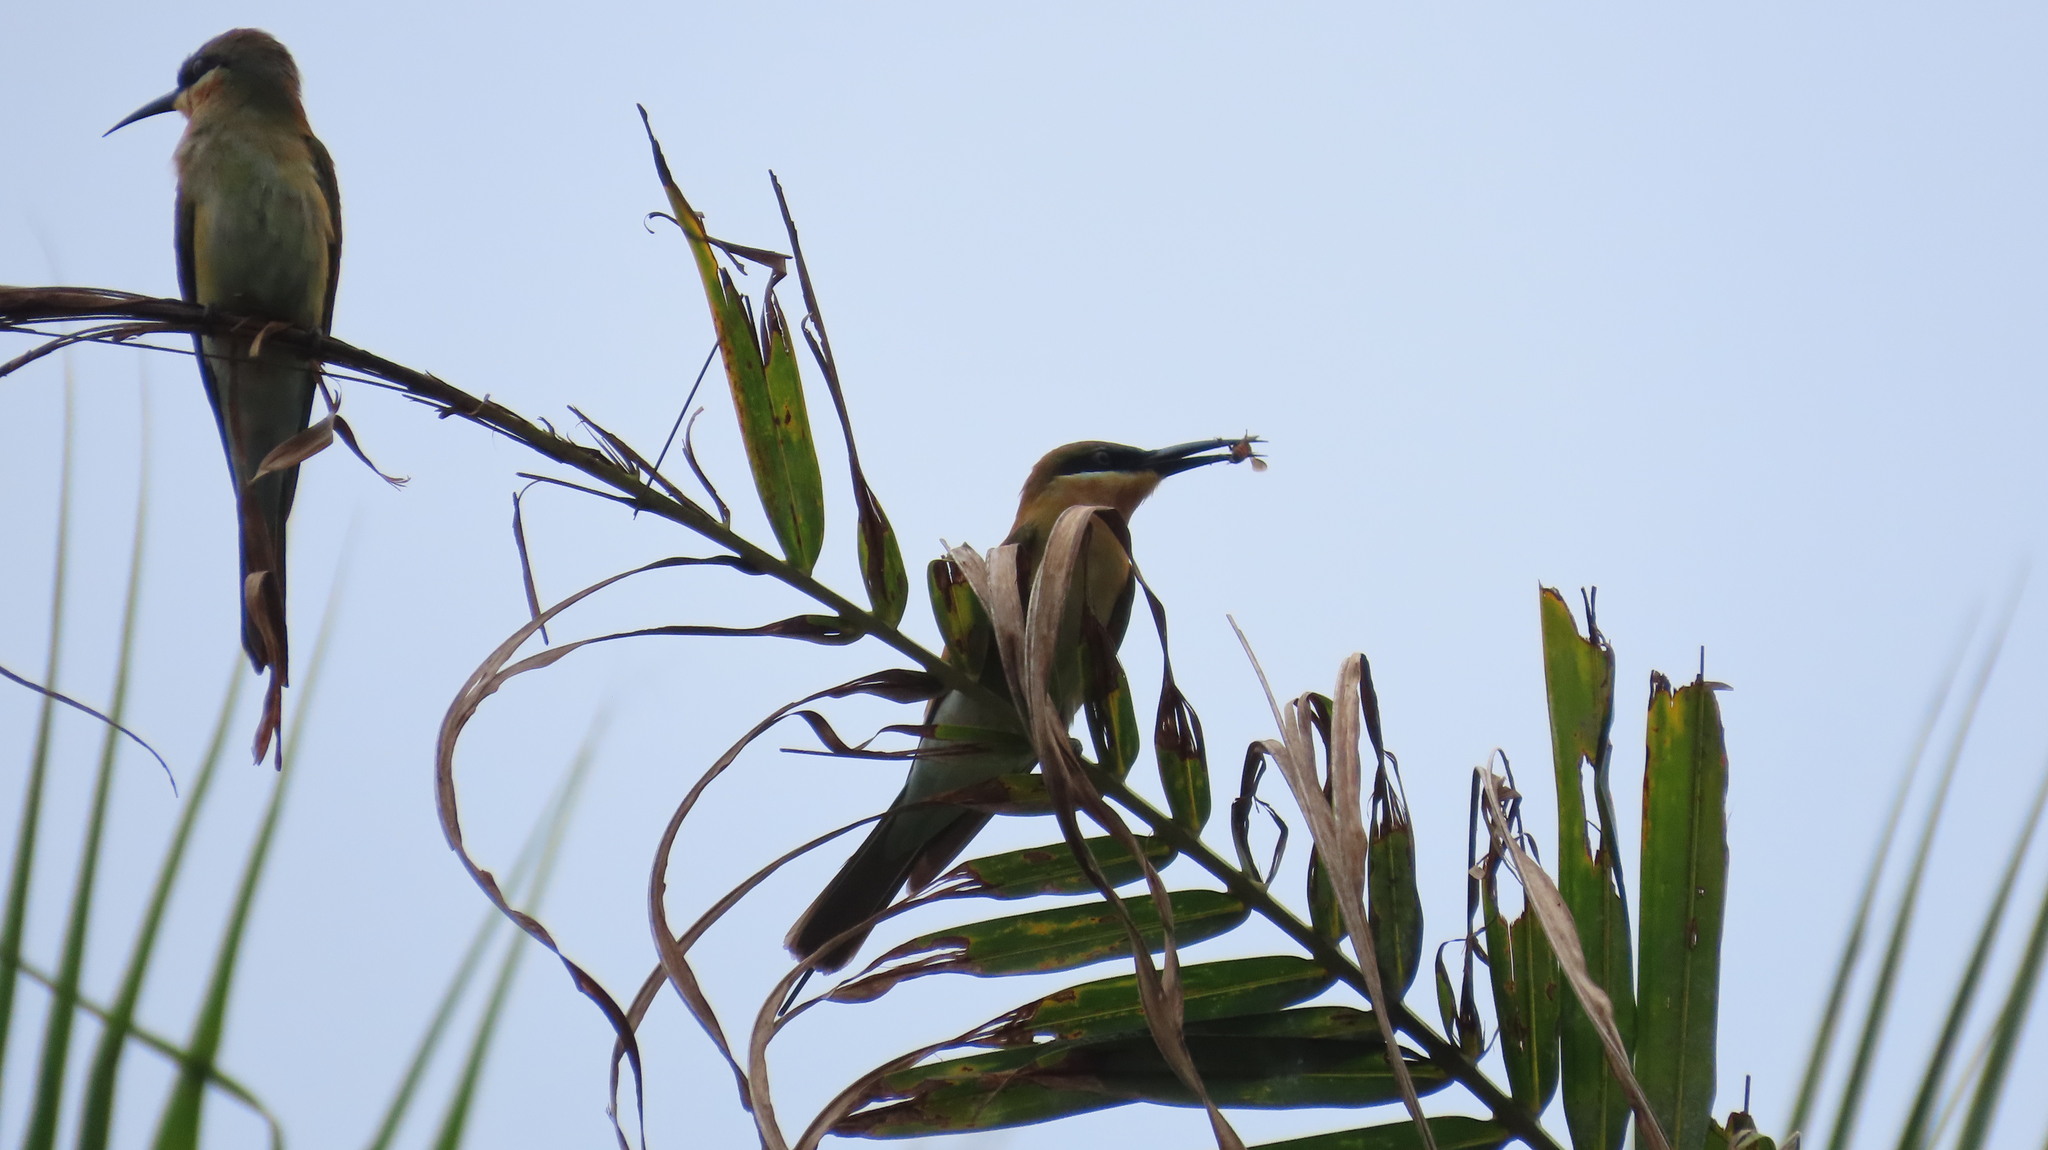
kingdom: Animalia
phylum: Chordata
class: Aves
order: Coraciiformes
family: Meropidae
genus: Merops
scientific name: Merops philippinus
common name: Blue-tailed bee-eater
